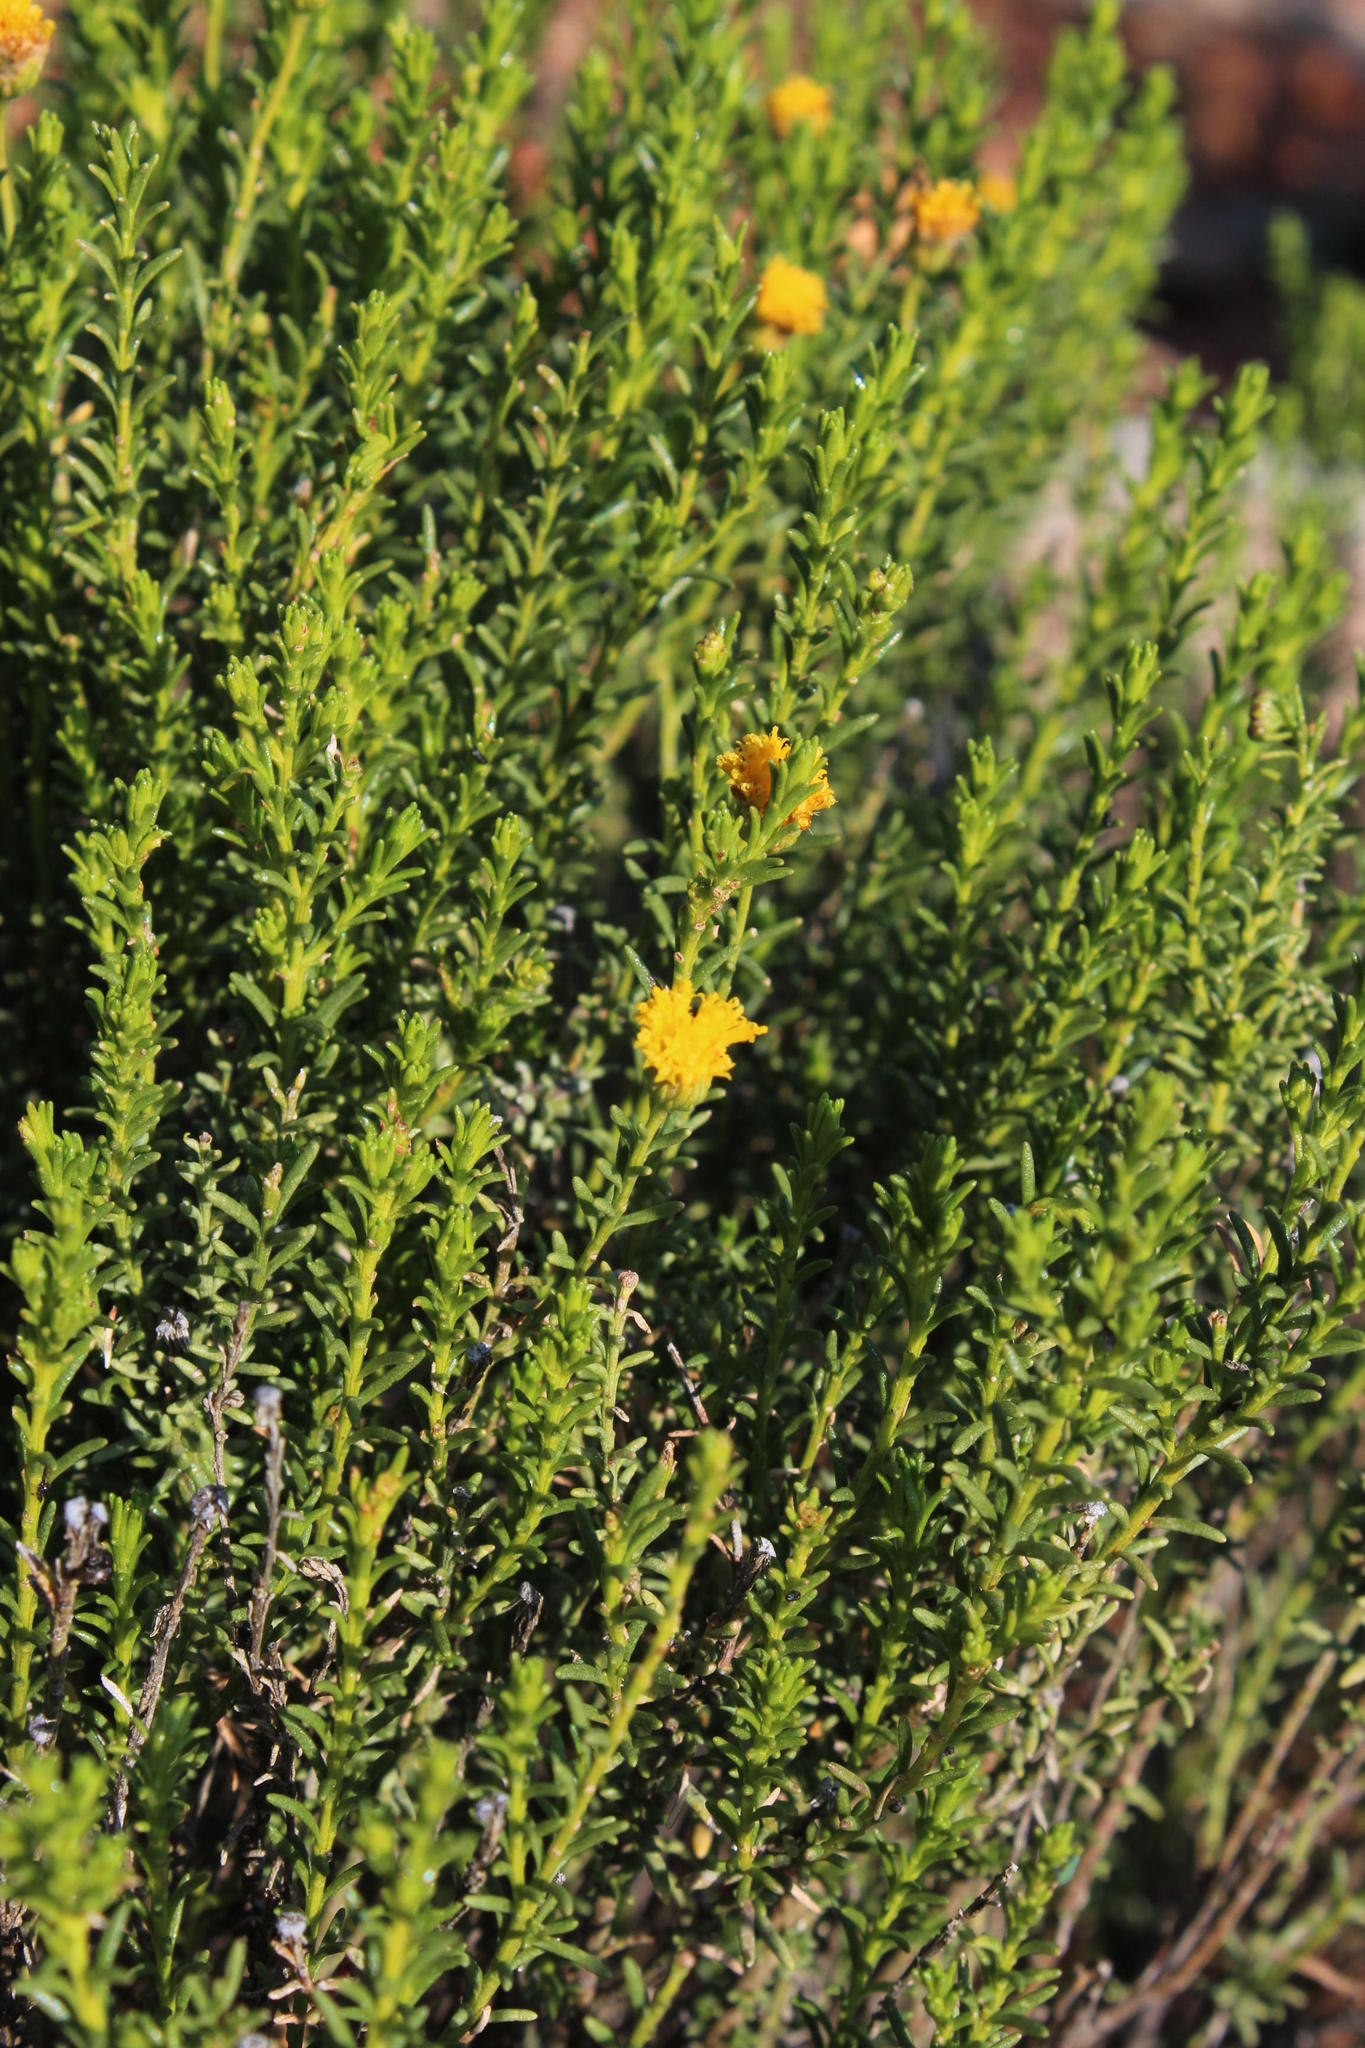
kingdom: Plantae
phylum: Tracheophyta
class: Magnoliopsida
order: Asterales
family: Asteraceae
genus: Chrysocoma
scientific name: Chrysocoma ciliata
